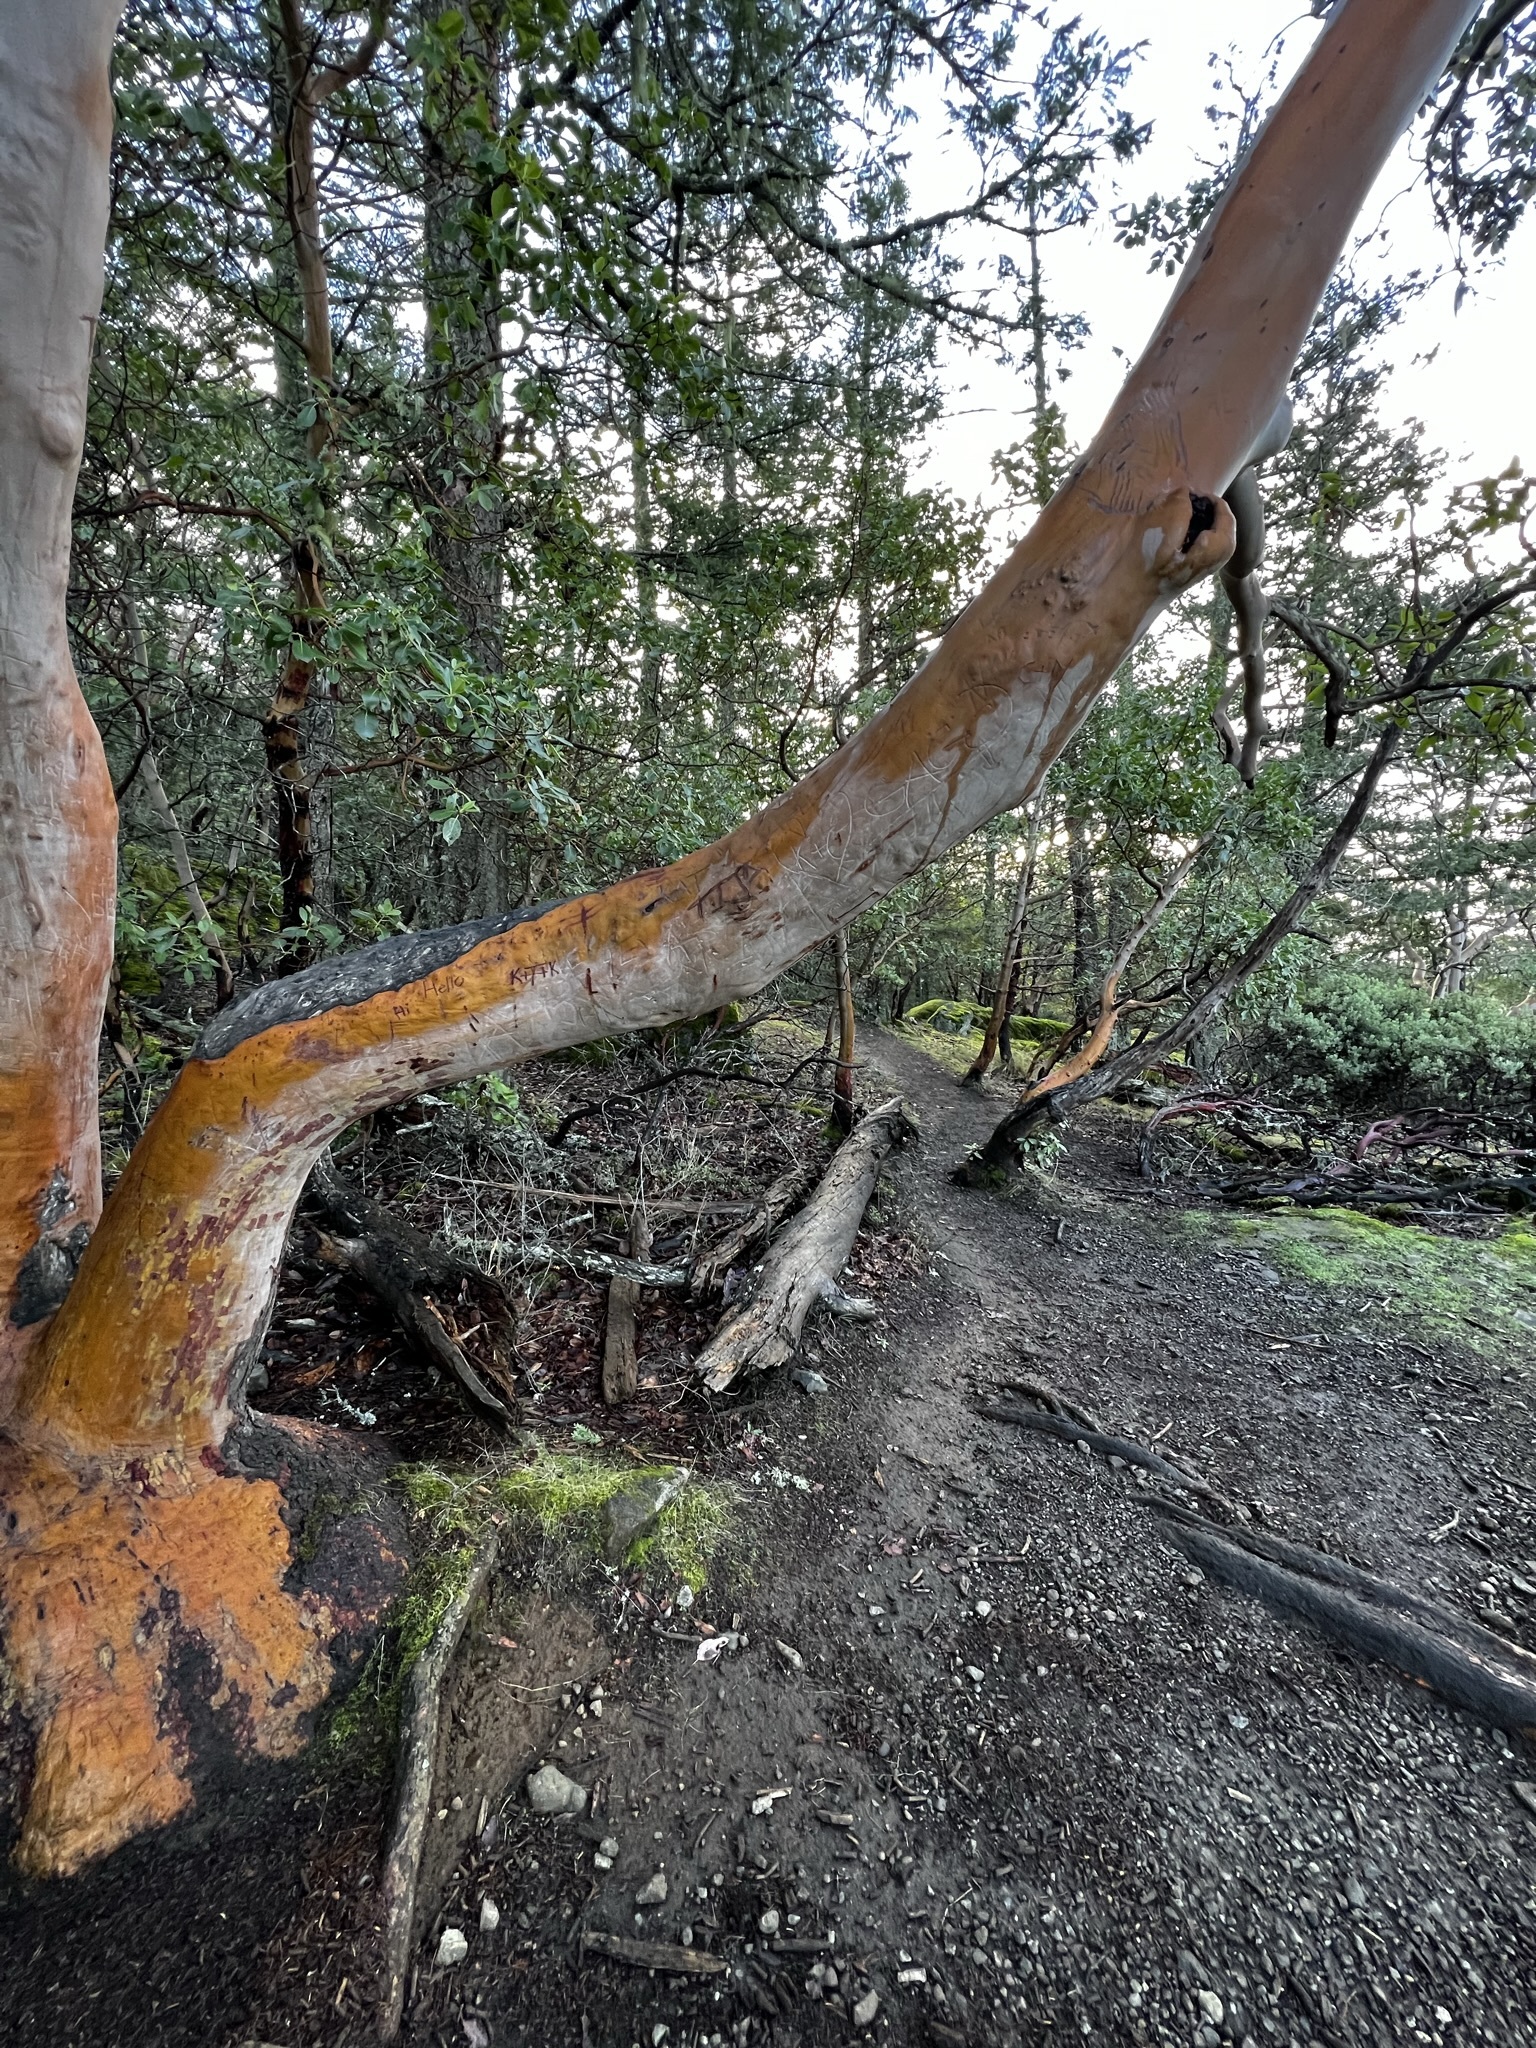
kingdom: Plantae
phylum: Tracheophyta
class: Magnoliopsida
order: Ericales
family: Ericaceae
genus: Arbutus
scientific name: Arbutus menziesii
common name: Pacific madrone
